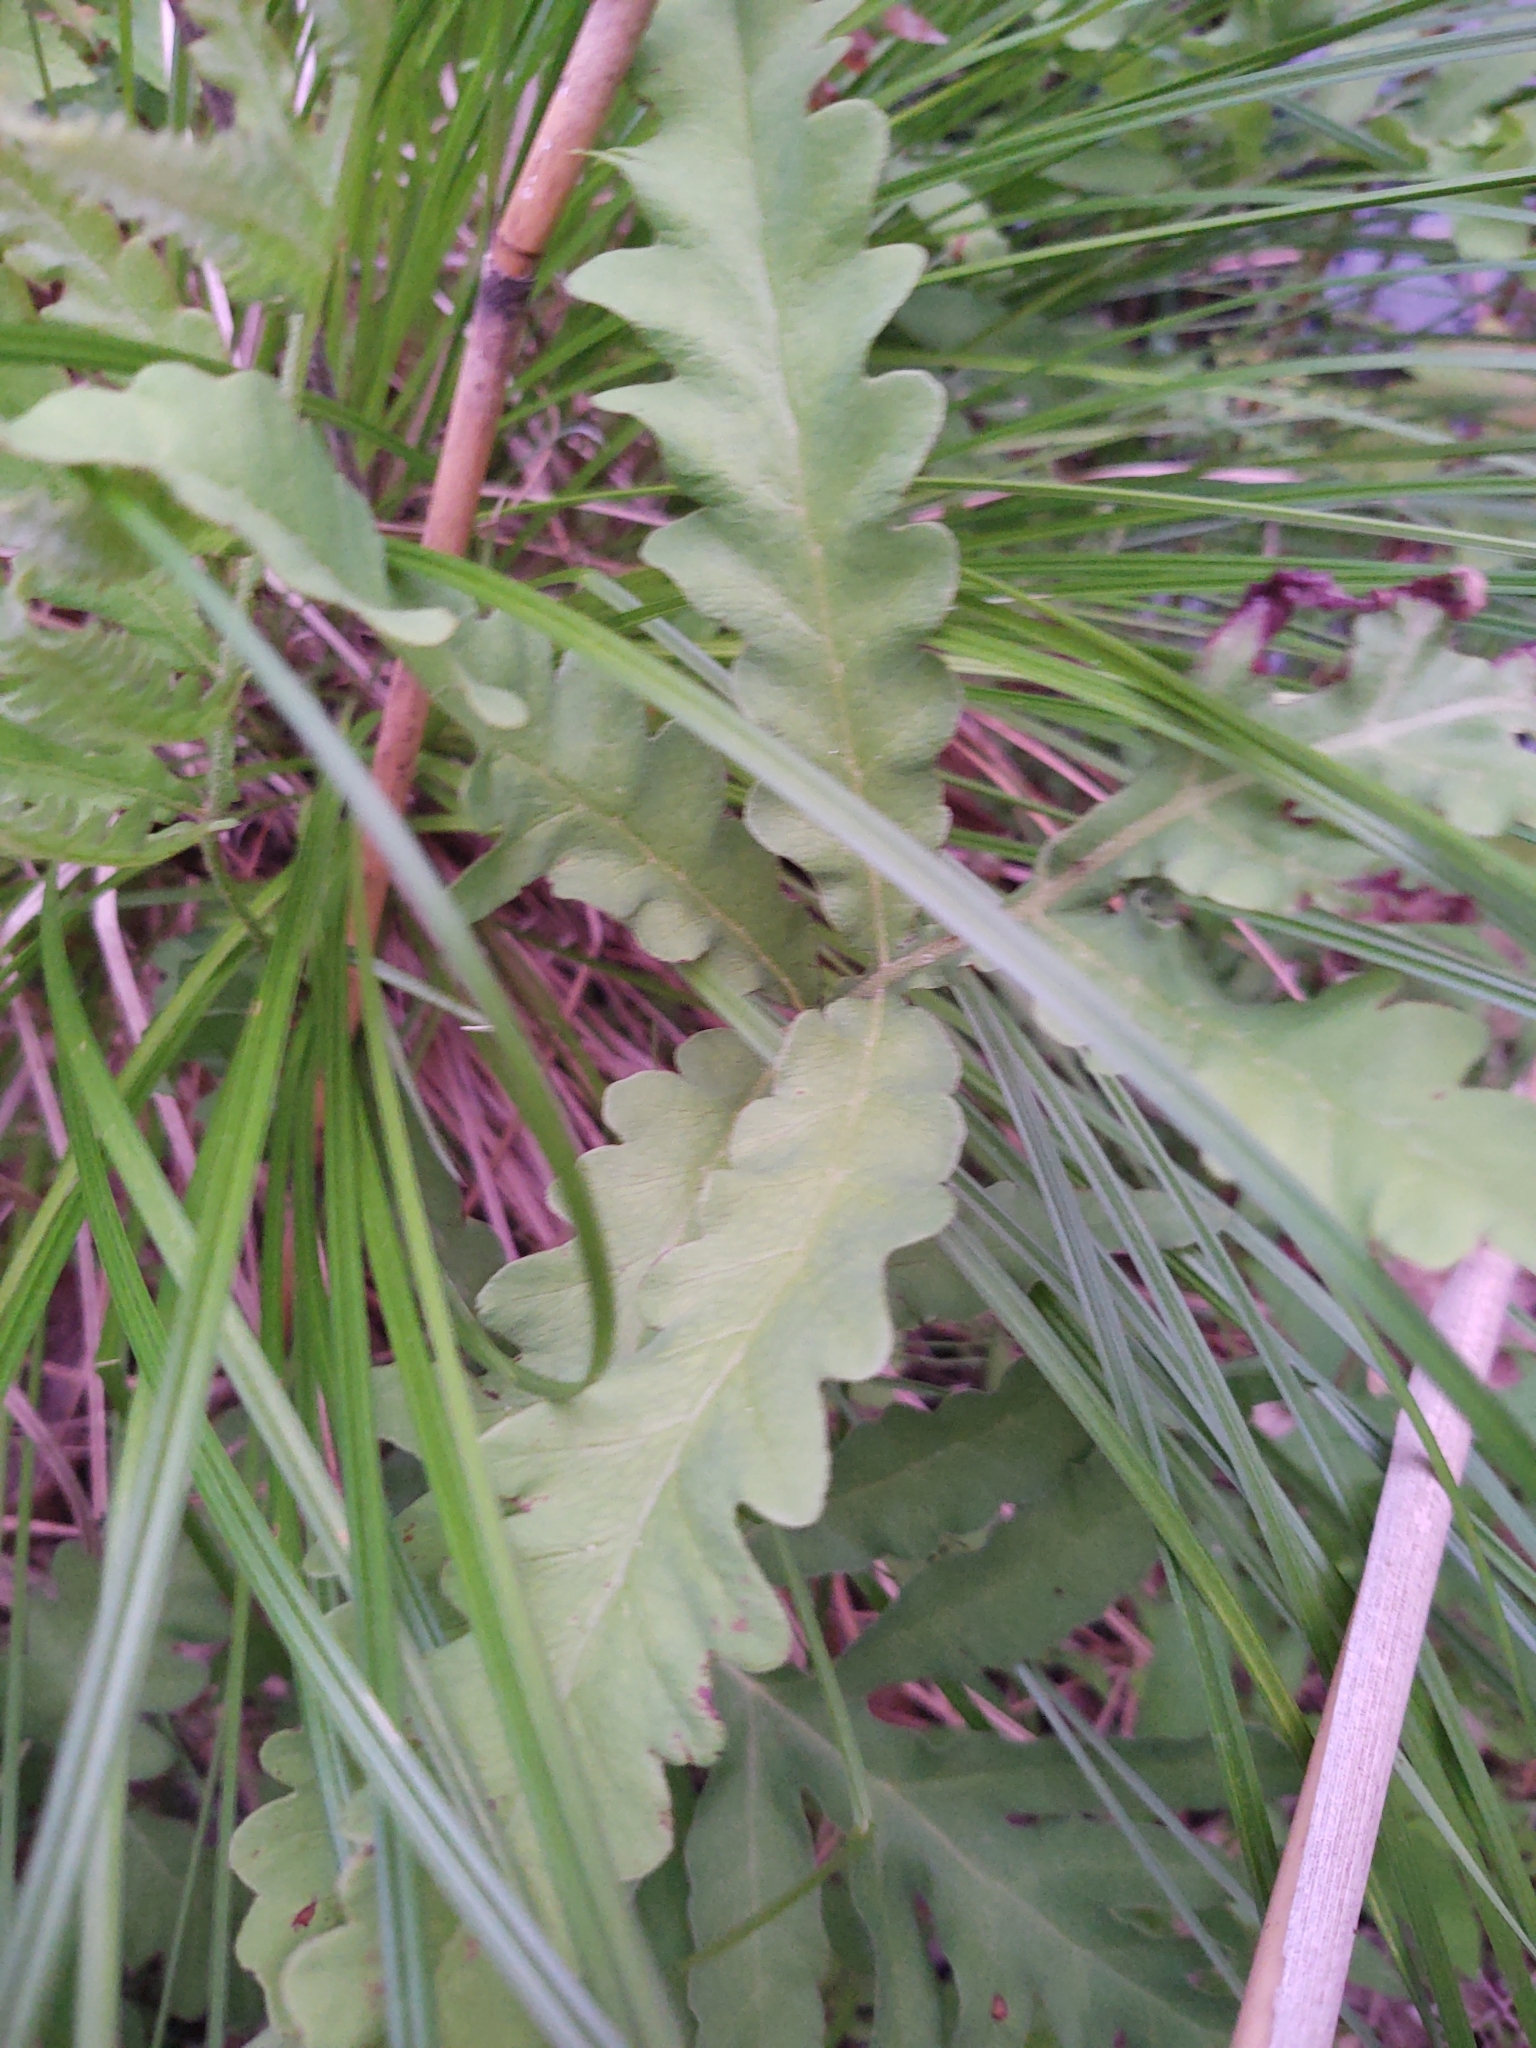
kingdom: Plantae
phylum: Tracheophyta
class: Polypodiopsida
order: Polypodiales
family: Onocleaceae
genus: Onoclea
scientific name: Onoclea sensibilis
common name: Sensitive fern
